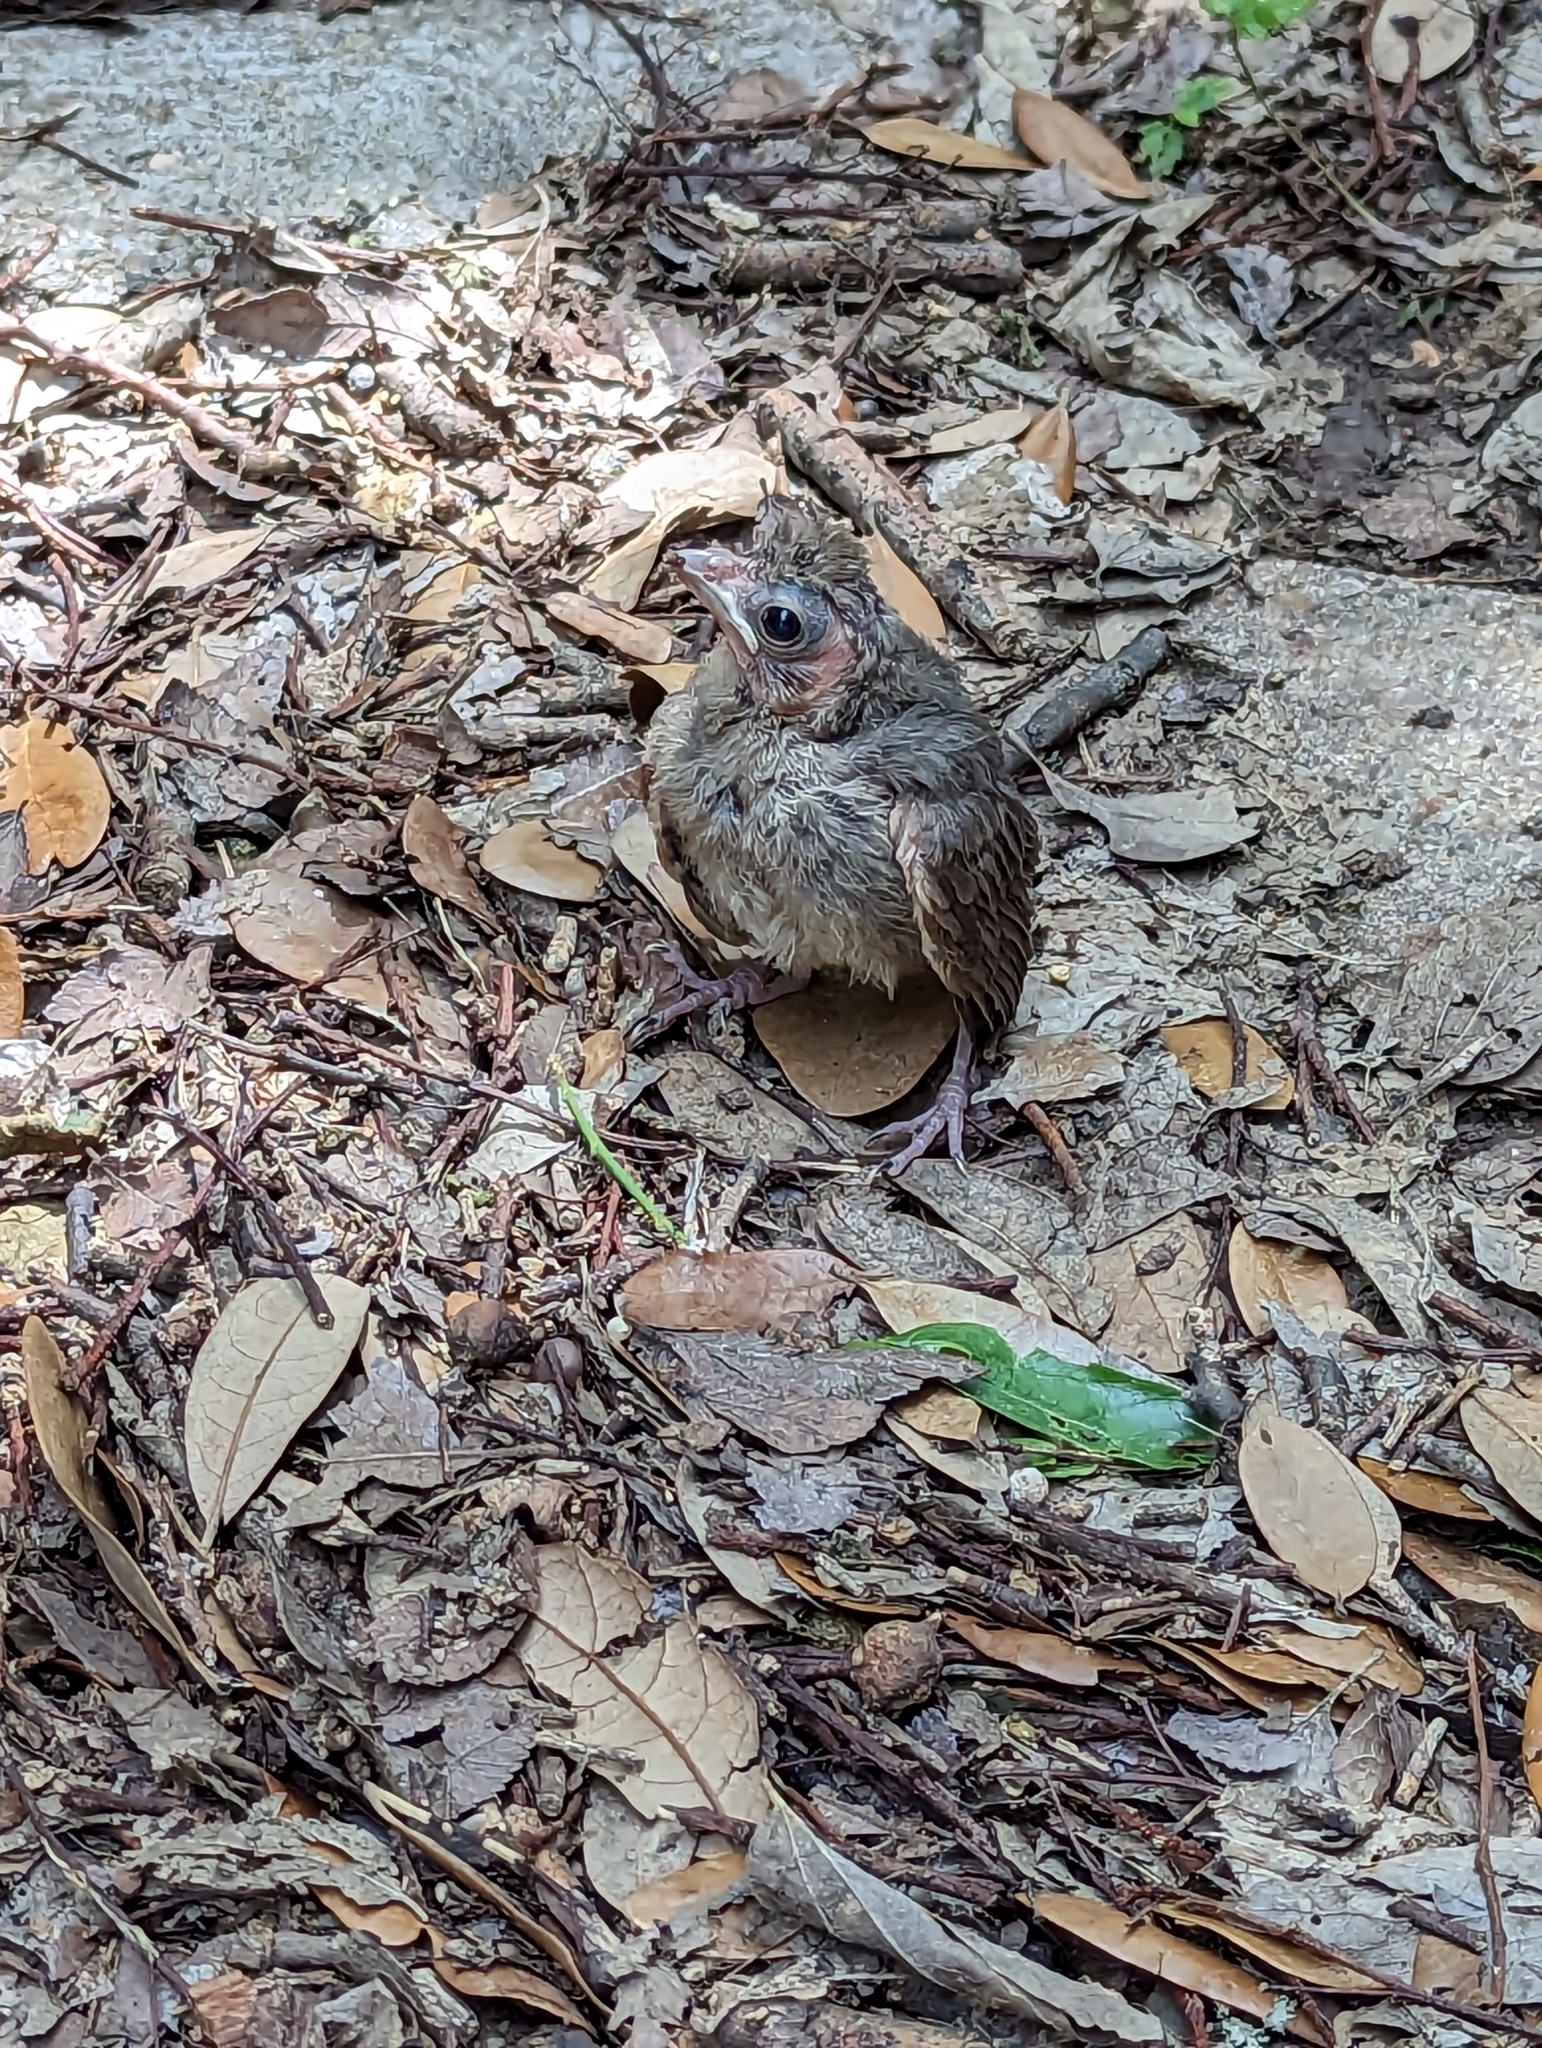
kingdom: Animalia
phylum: Chordata
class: Aves
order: Passeriformes
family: Cardinalidae
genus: Cardinalis
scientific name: Cardinalis cardinalis
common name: Northern cardinal
